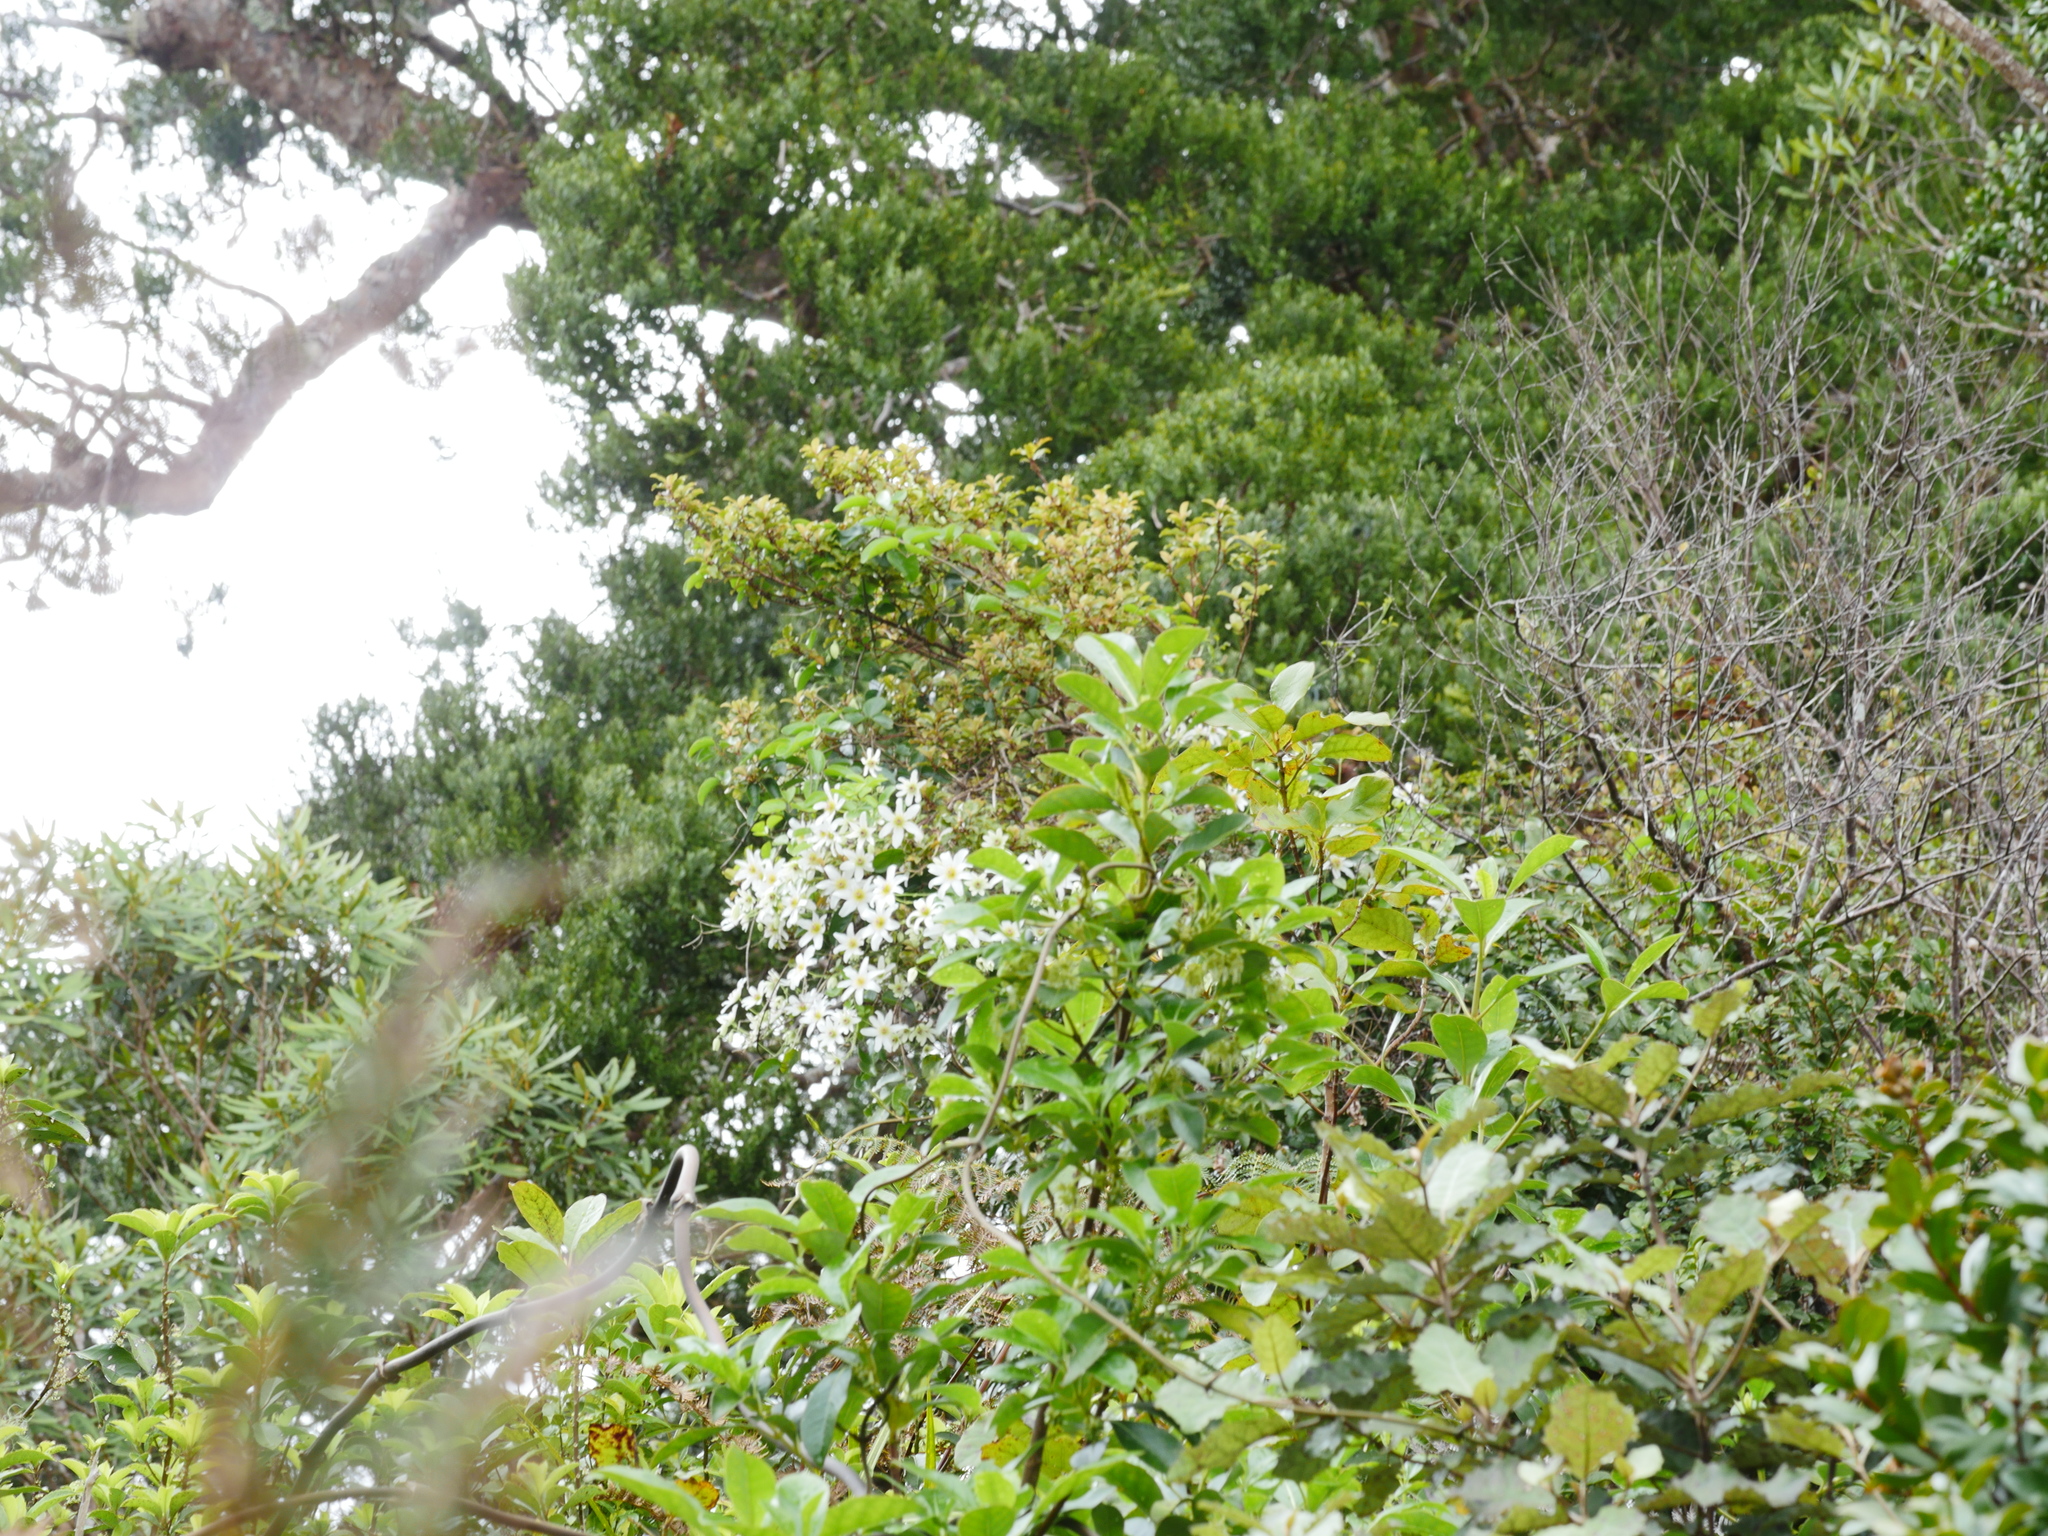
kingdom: Plantae
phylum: Tracheophyta
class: Magnoliopsida
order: Ranunculales
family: Ranunculaceae
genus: Clematis
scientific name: Clematis paniculata
